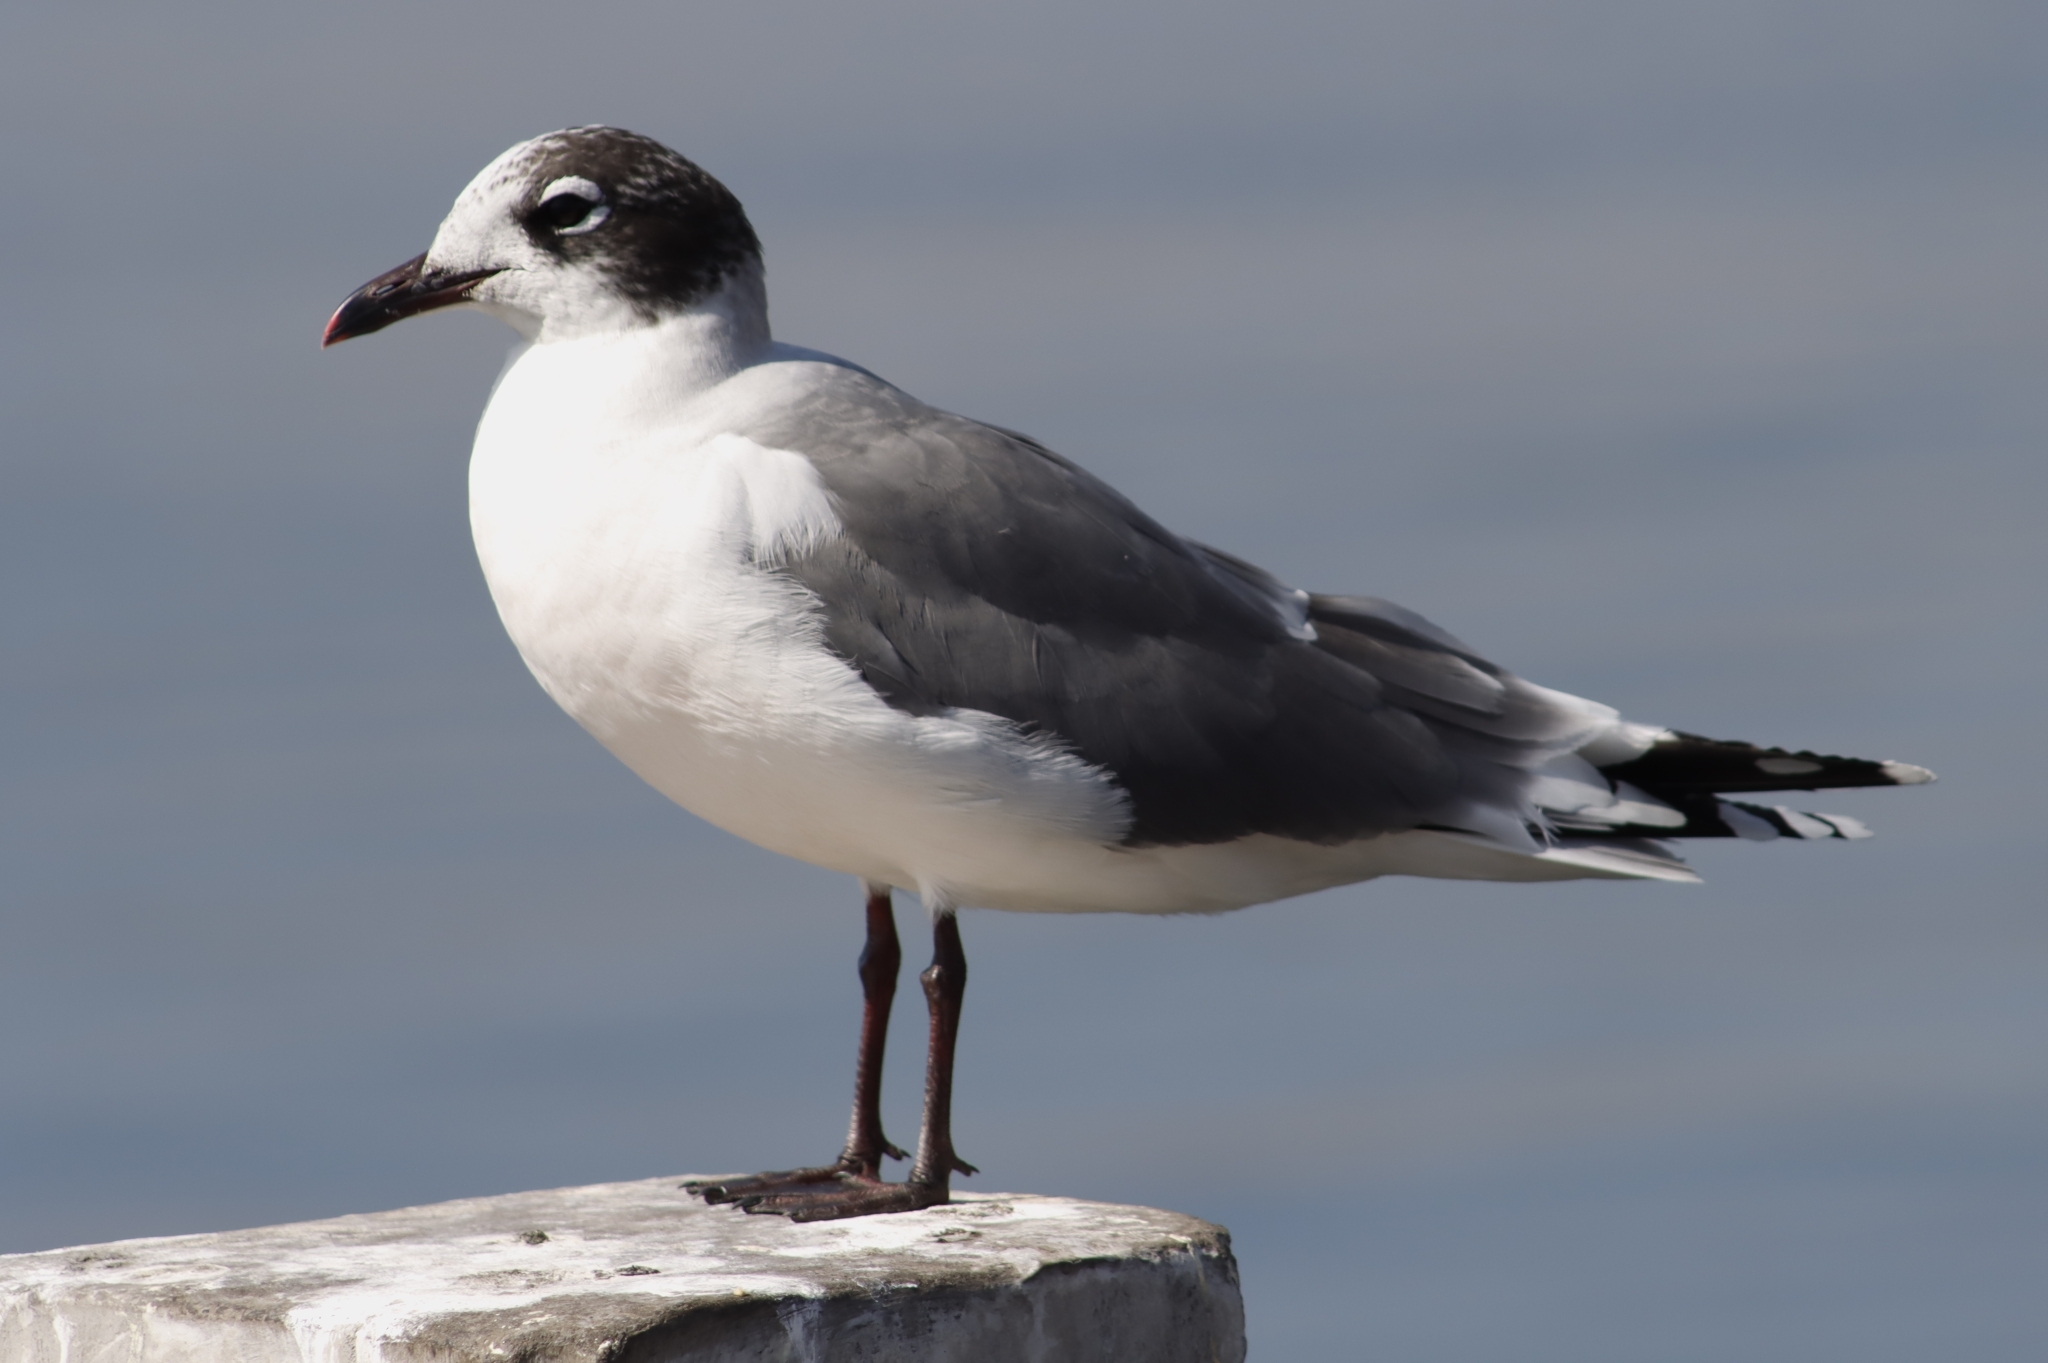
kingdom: Animalia
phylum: Chordata
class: Aves
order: Charadriiformes
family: Laridae
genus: Leucophaeus
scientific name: Leucophaeus pipixcan
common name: Franklin's gull
